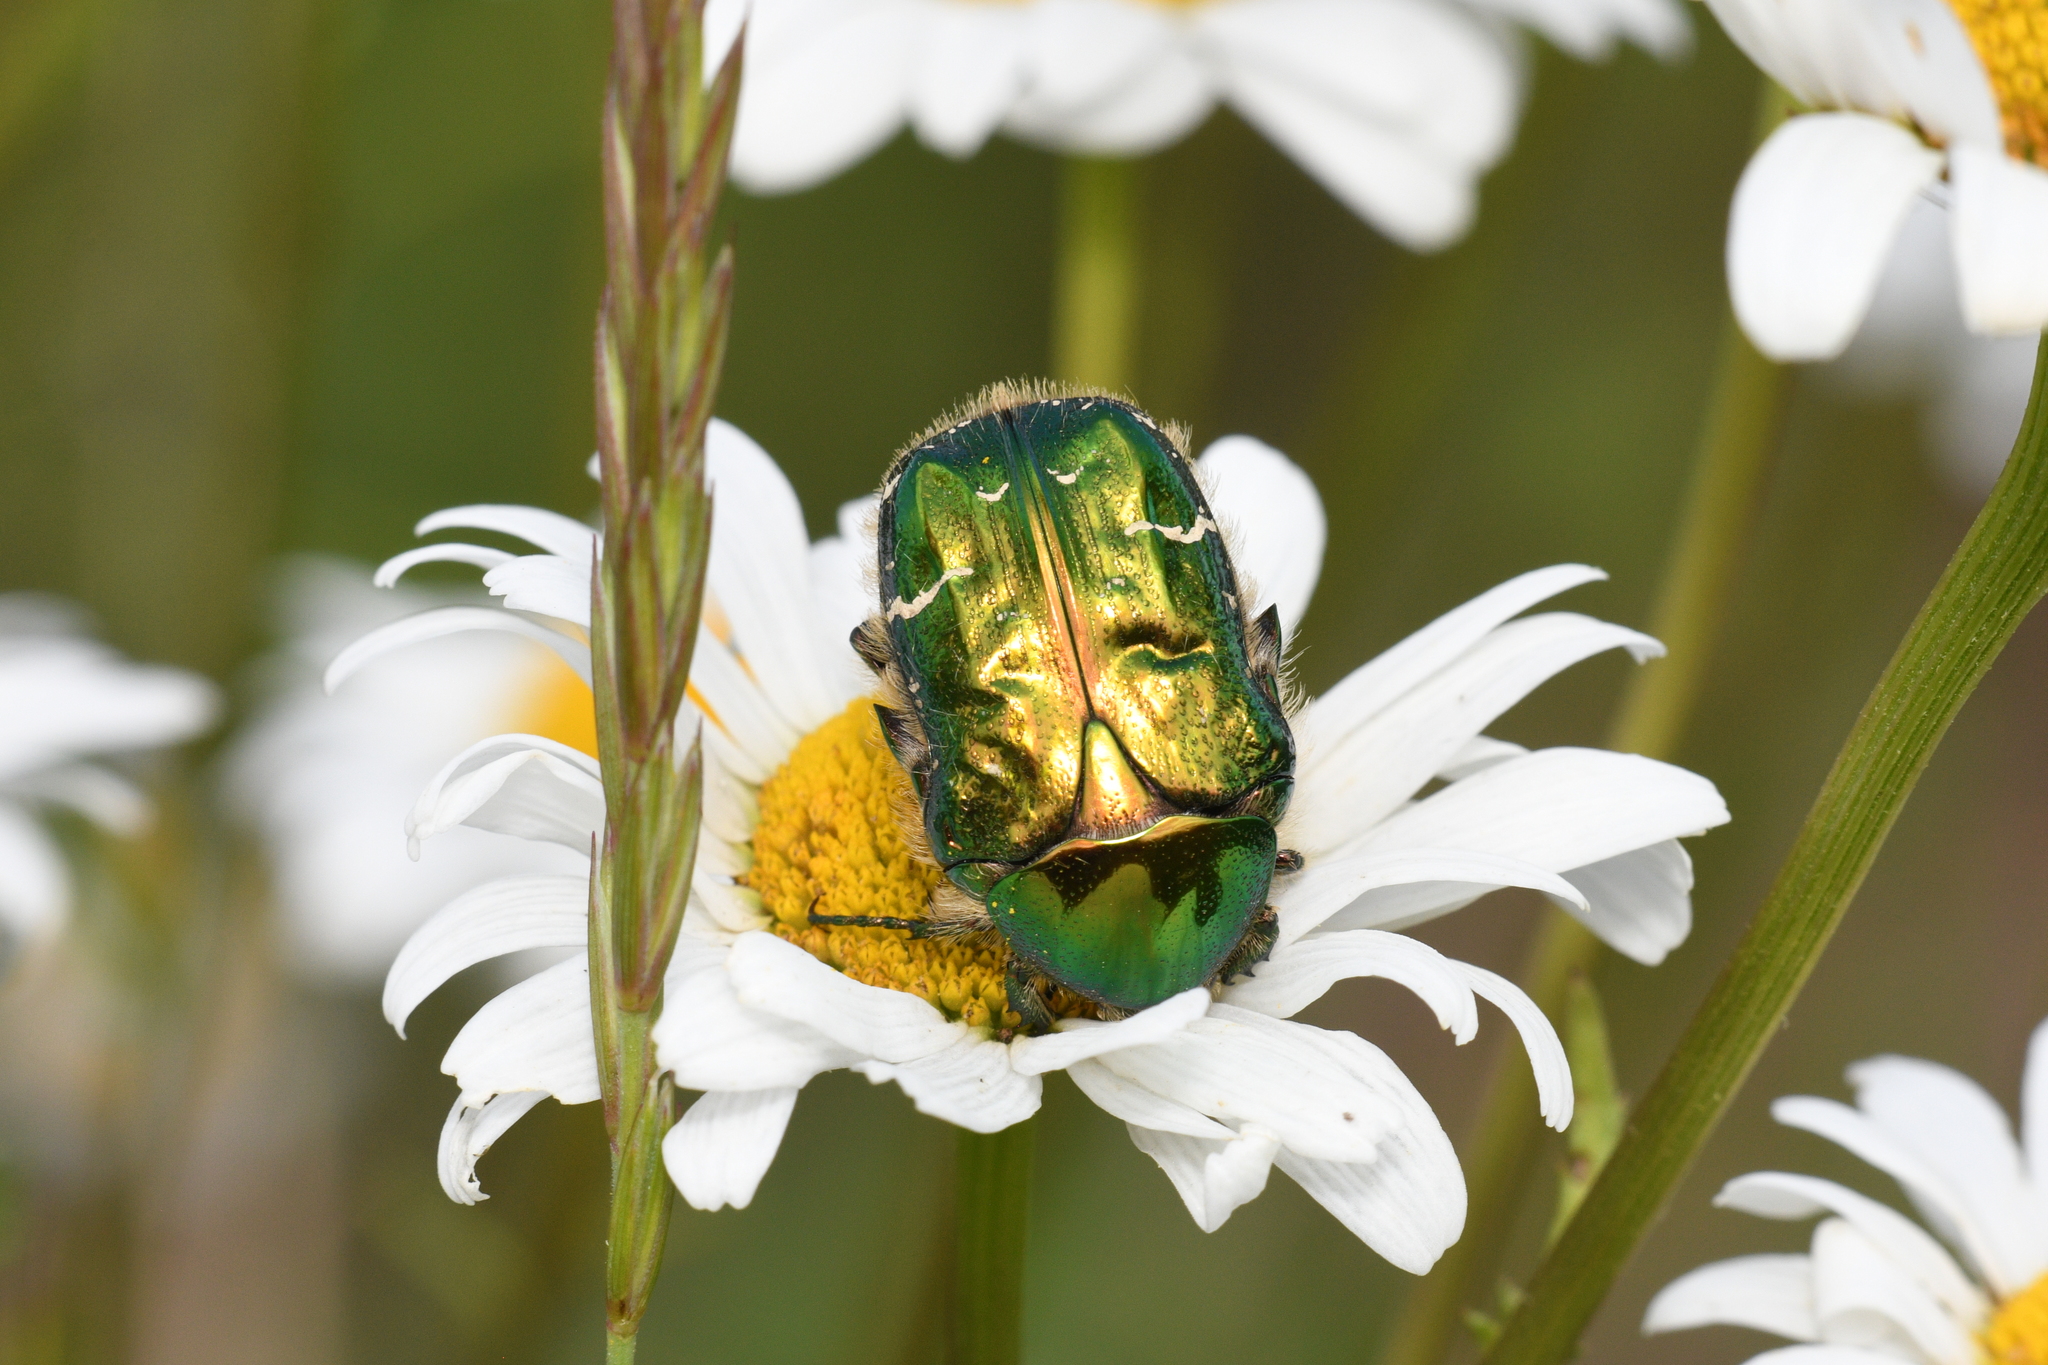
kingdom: Animalia
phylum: Arthropoda
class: Insecta
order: Coleoptera
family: Scarabaeidae
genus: Cetonia
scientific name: Cetonia aurata
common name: Rose chafer
